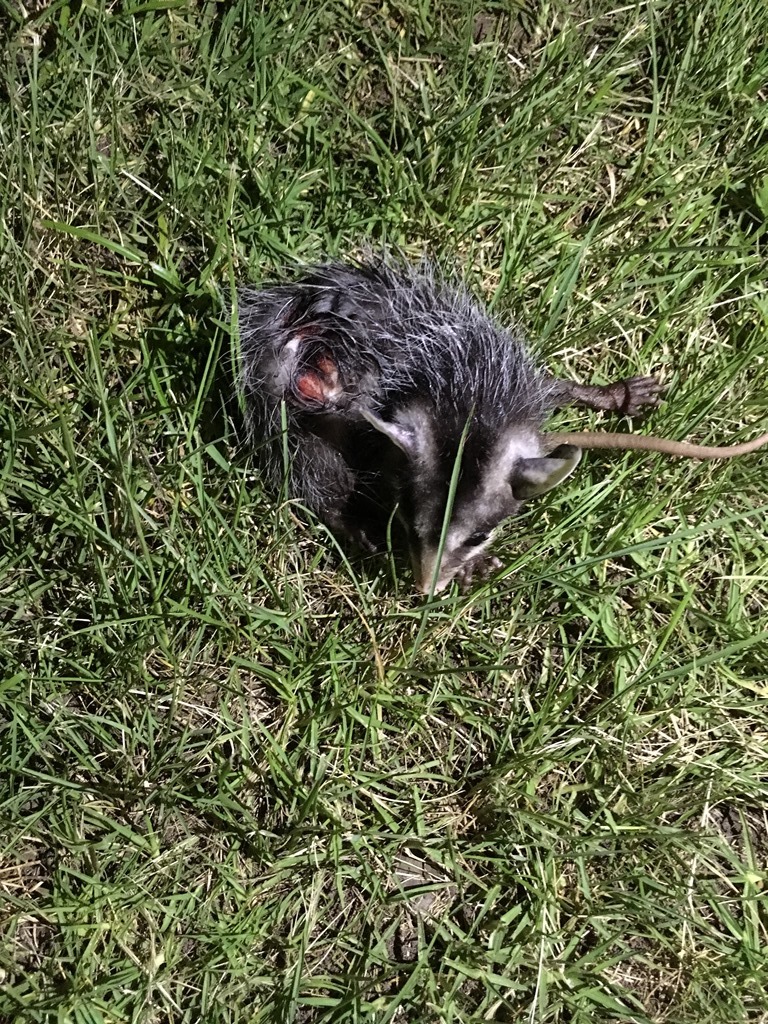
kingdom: Animalia
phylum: Chordata
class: Mammalia
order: Didelphimorphia
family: Didelphidae
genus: Didelphis
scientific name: Didelphis marsupialis
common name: Common opossum
